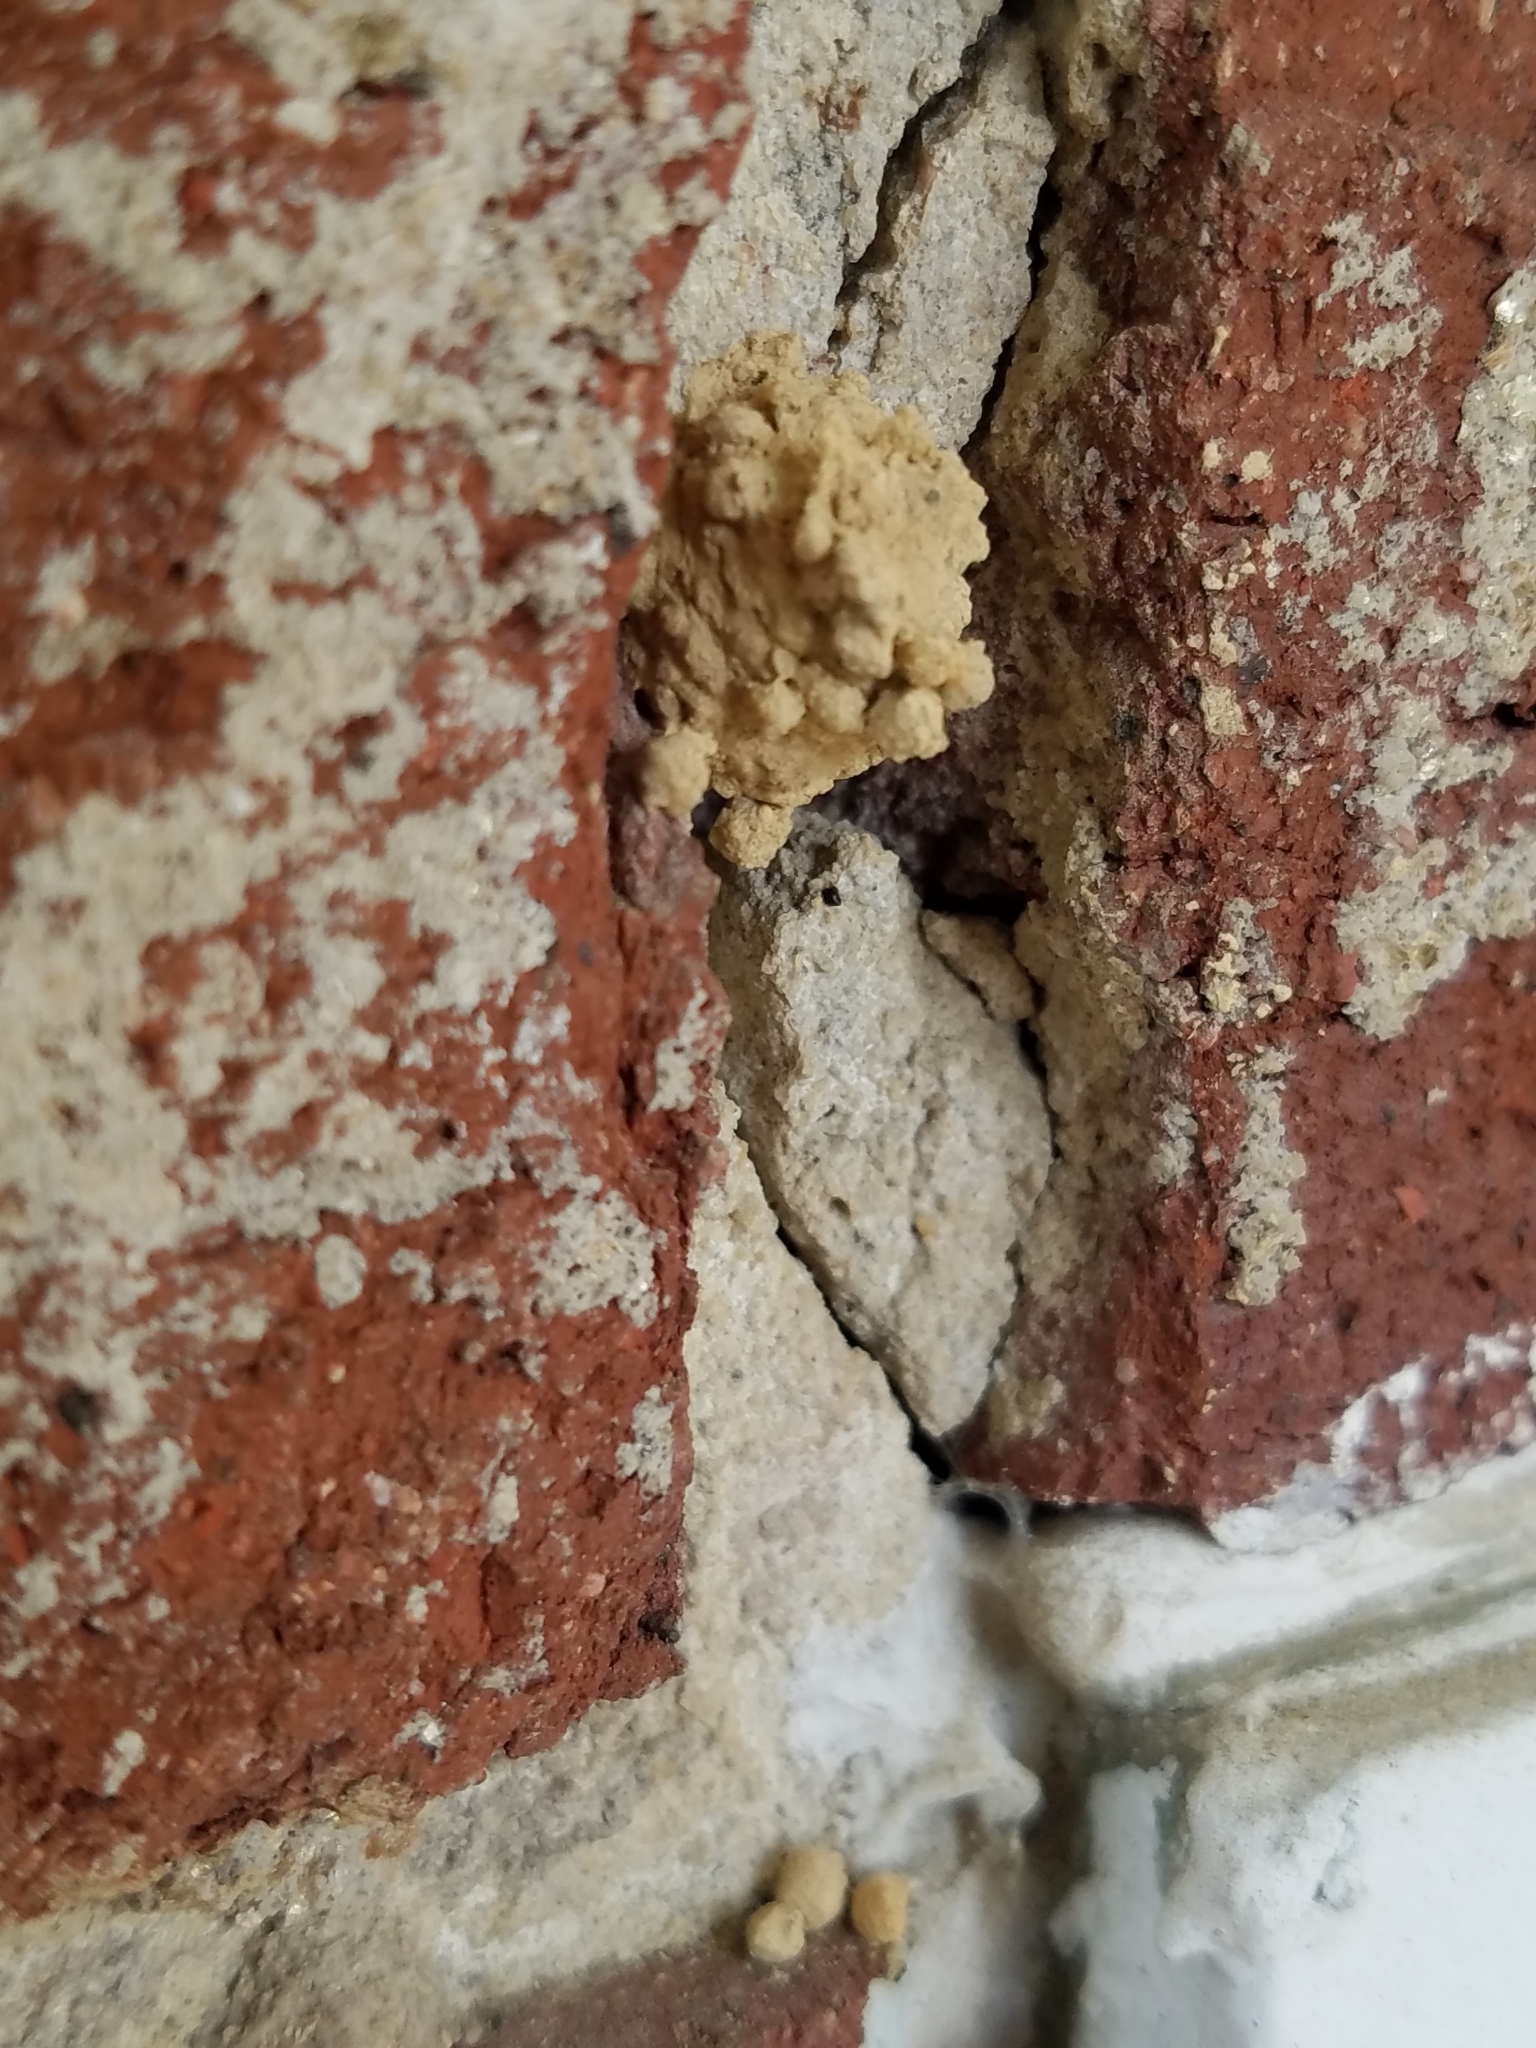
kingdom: Animalia
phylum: Arthropoda
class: Insecta
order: Hymenoptera
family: Eumenidae
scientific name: Eumenidae
